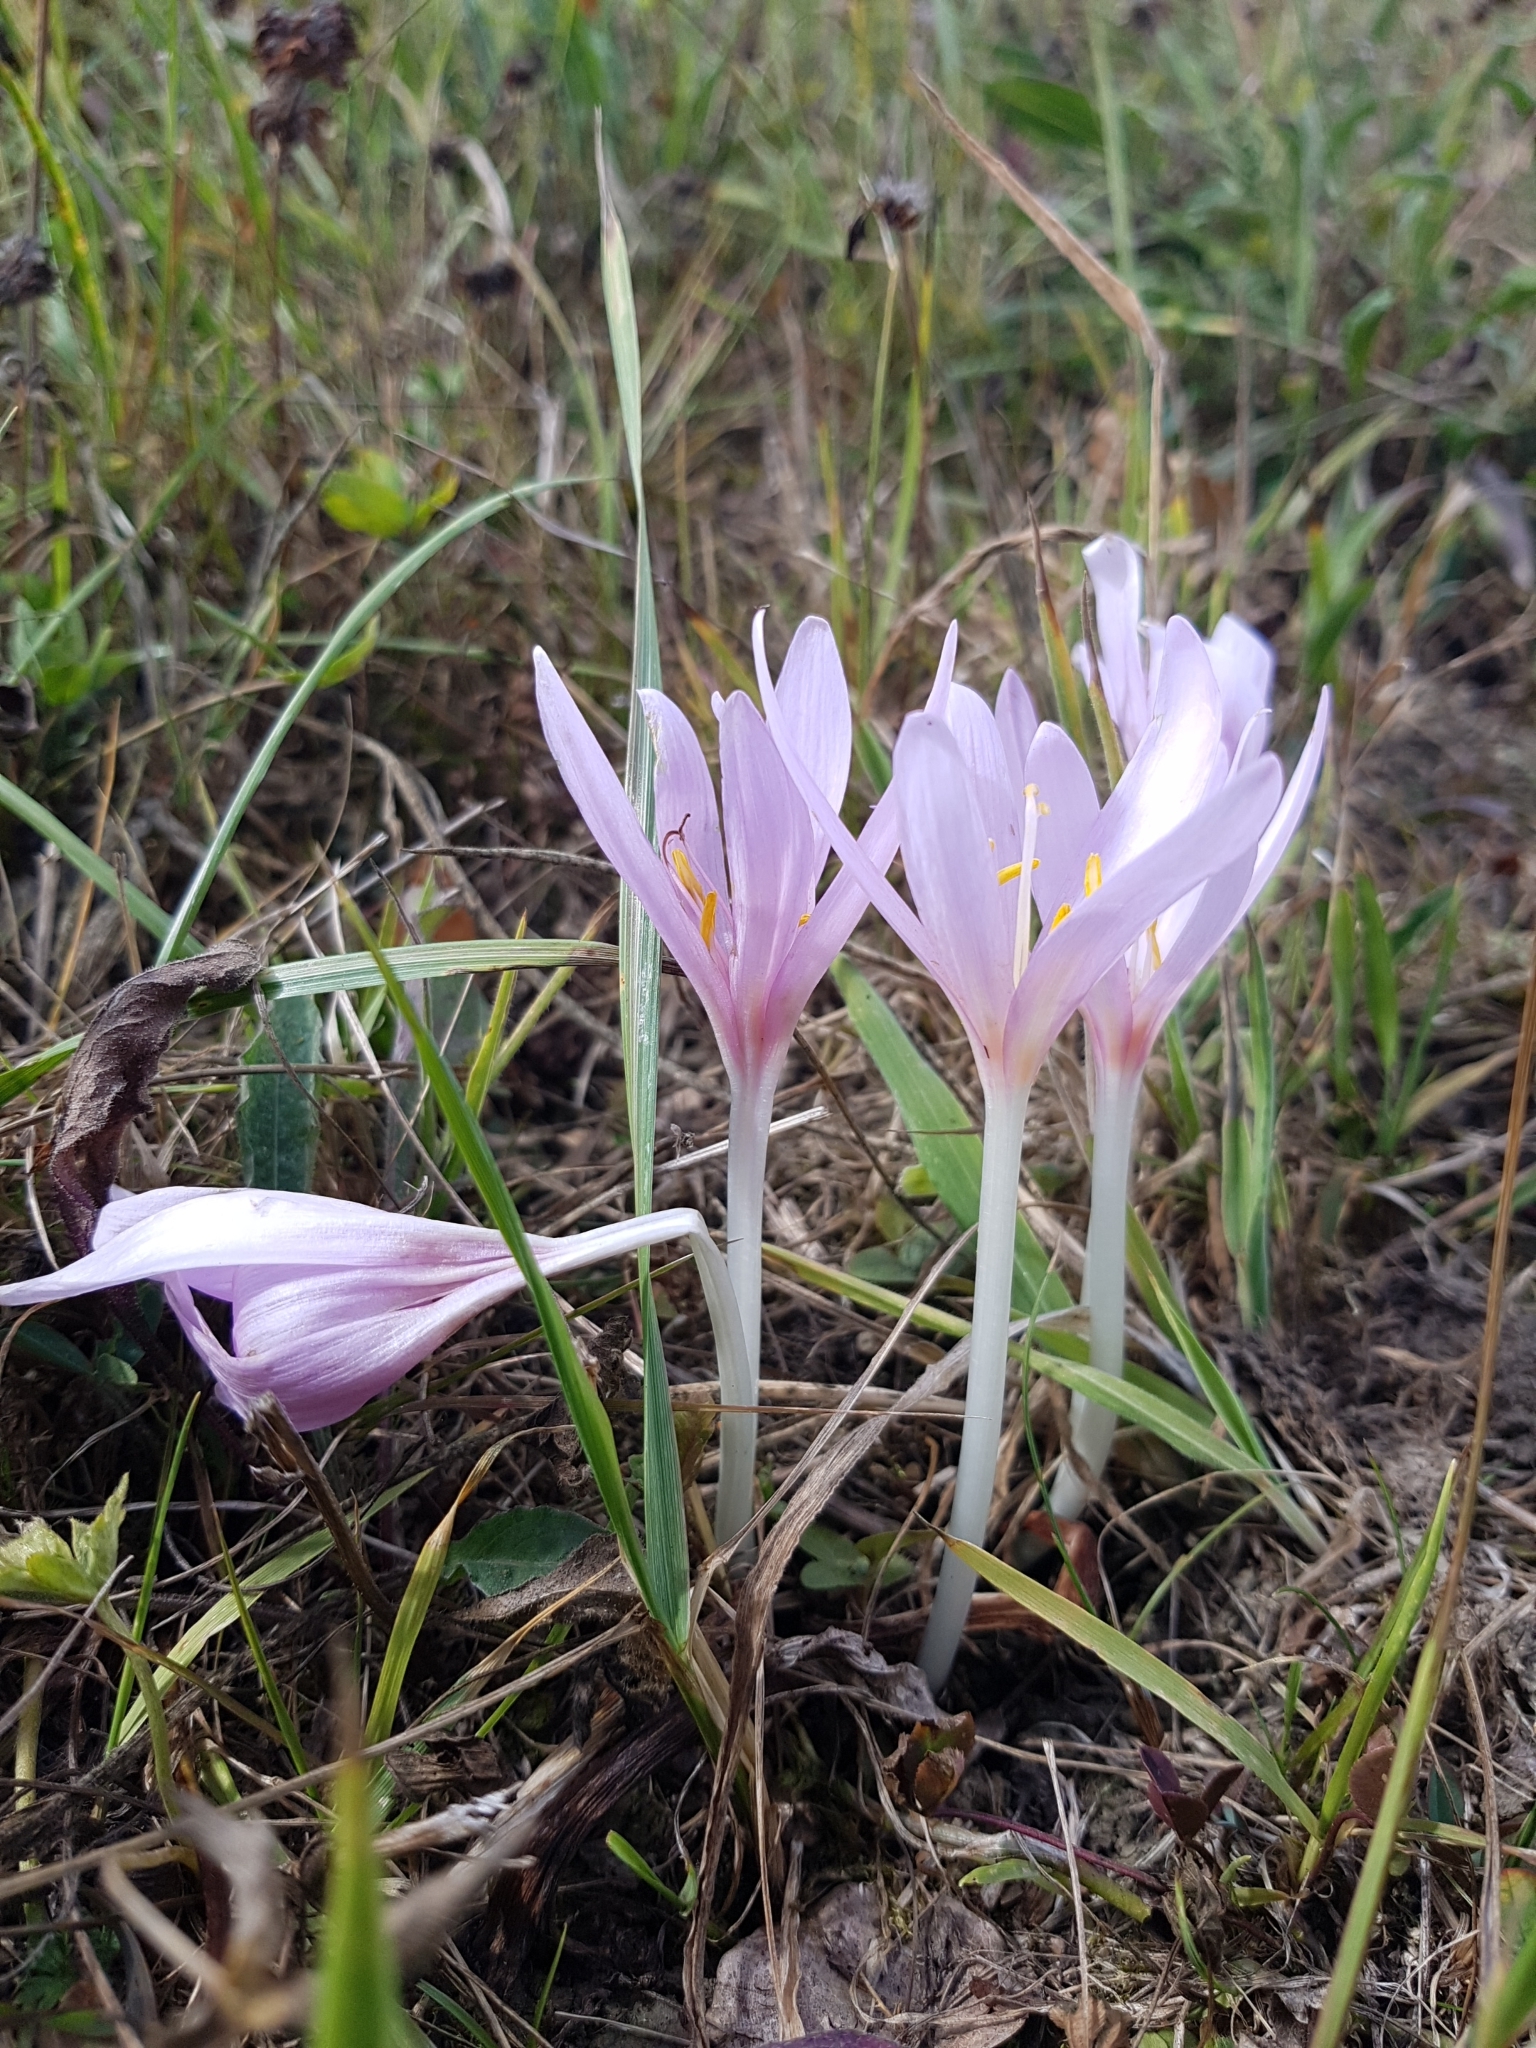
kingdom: Plantae
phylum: Tracheophyta
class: Liliopsida
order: Liliales
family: Colchicaceae
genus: Colchicum
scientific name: Colchicum autumnale
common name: Autumn crocus
